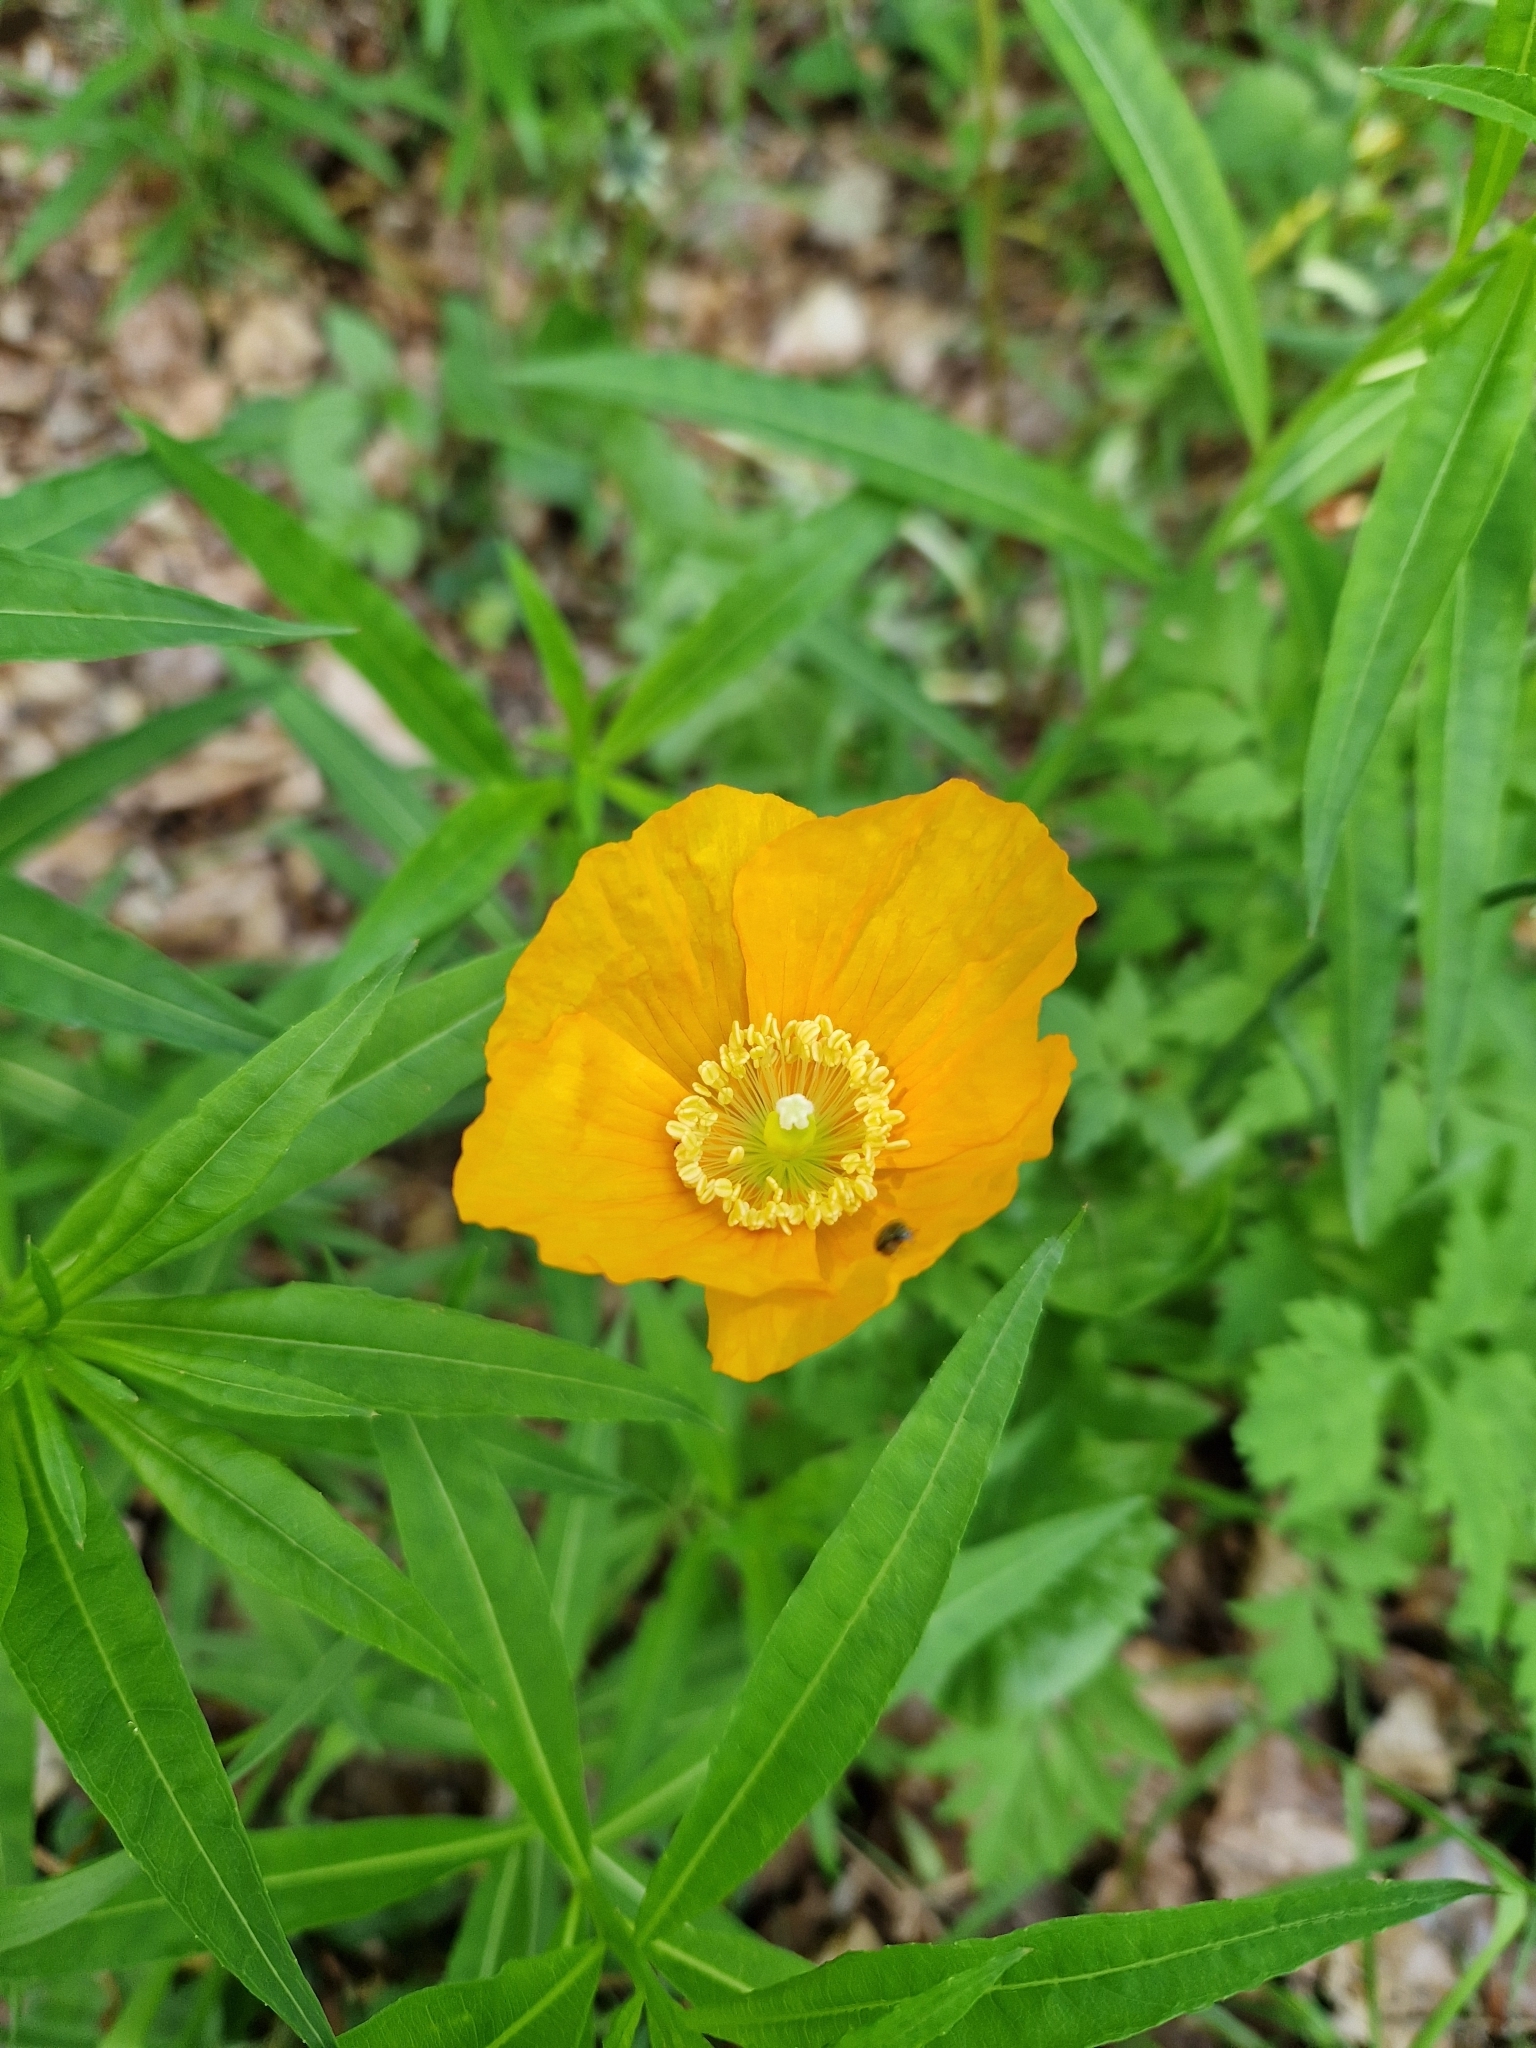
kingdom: Plantae
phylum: Tracheophyta
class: Magnoliopsida
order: Ranunculales
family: Papaveraceae
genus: Papaver
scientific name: Papaver cambricum
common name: Poppy
